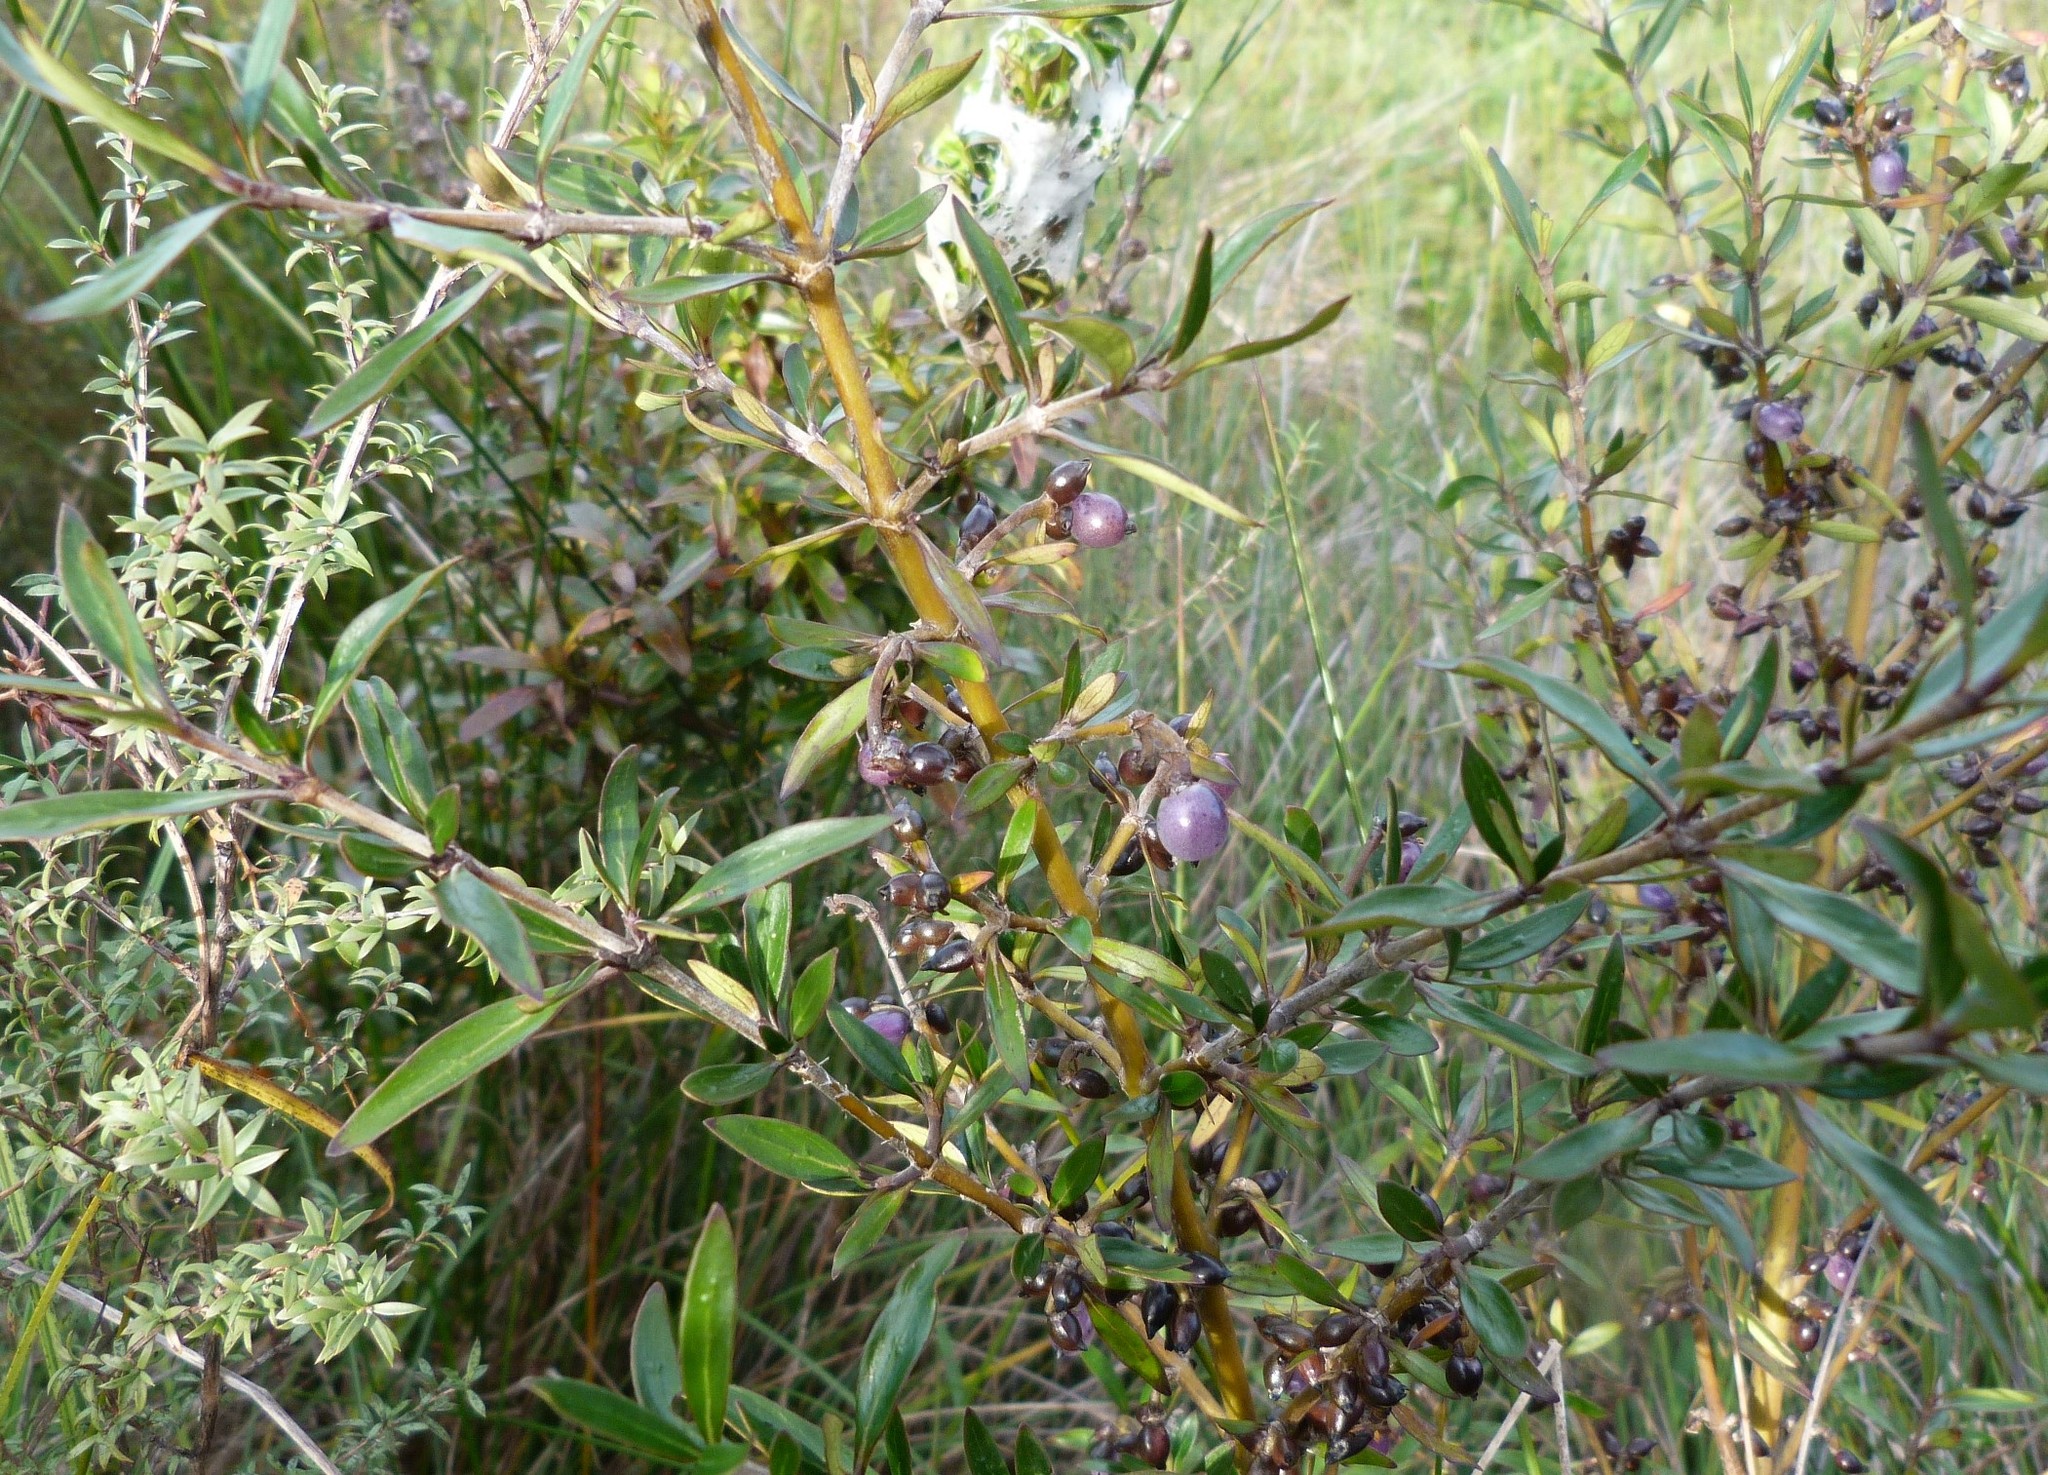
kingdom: Plantae
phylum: Tracheophyta
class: Magnoliopsida
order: Gentianales
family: Rubiaceae
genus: Coprosma
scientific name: Coprosma cunninghamii
